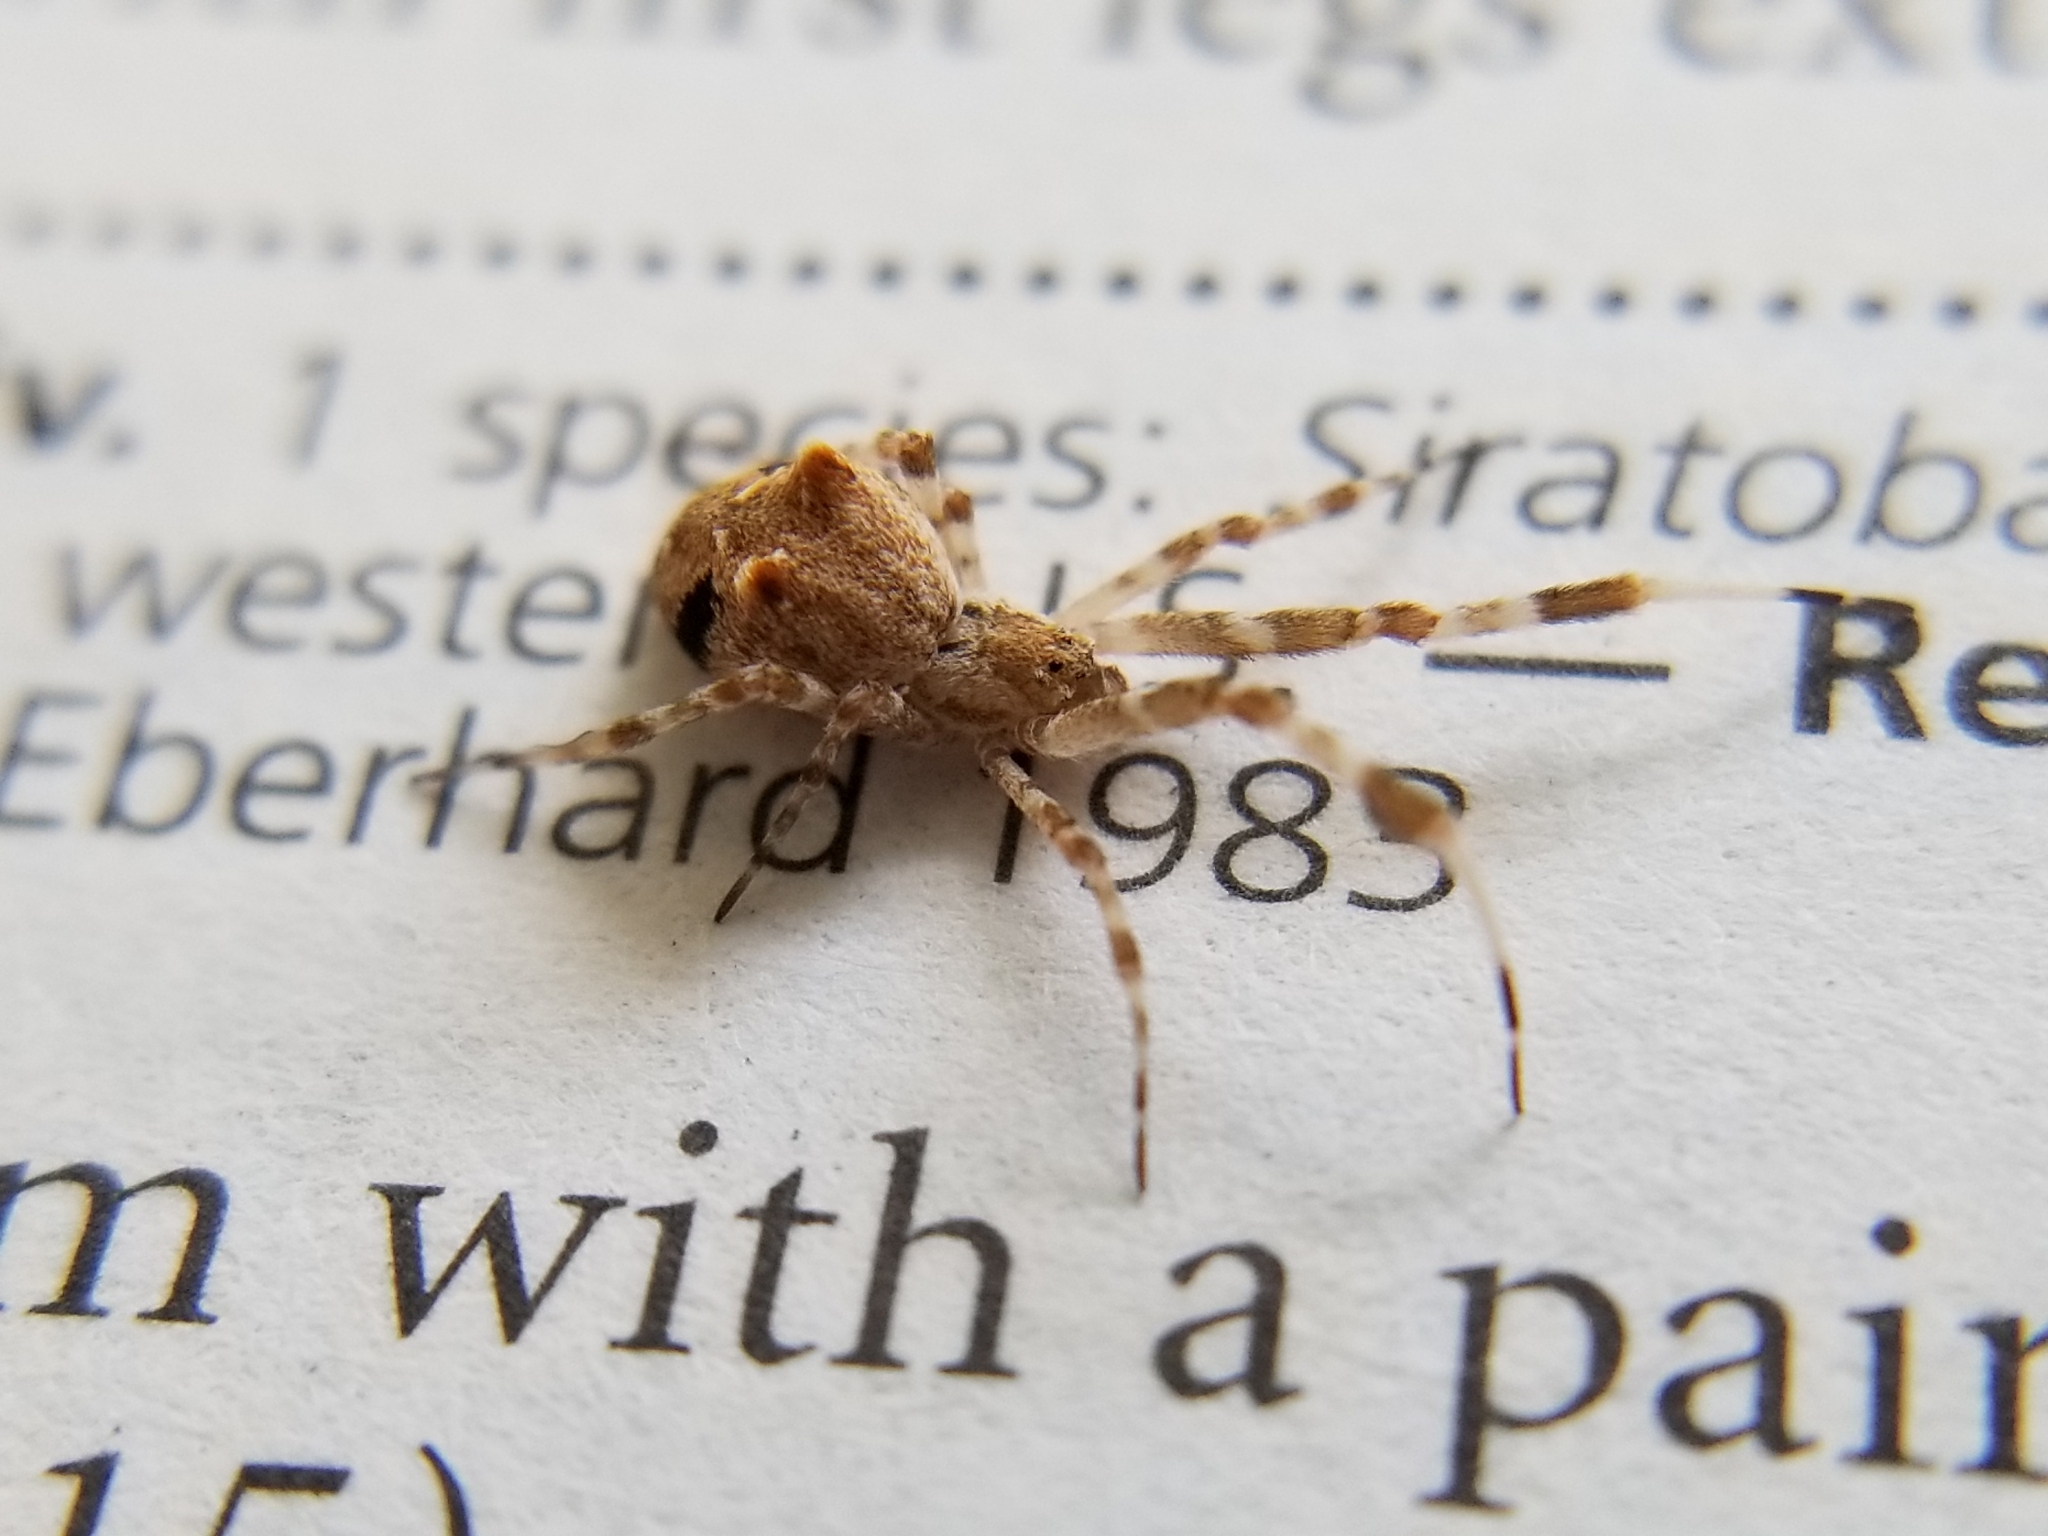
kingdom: Animalia
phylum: Arthropoda
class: Arachnida
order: Araneae
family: Uloboridae
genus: Uloborus
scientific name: Uloborus diversus
